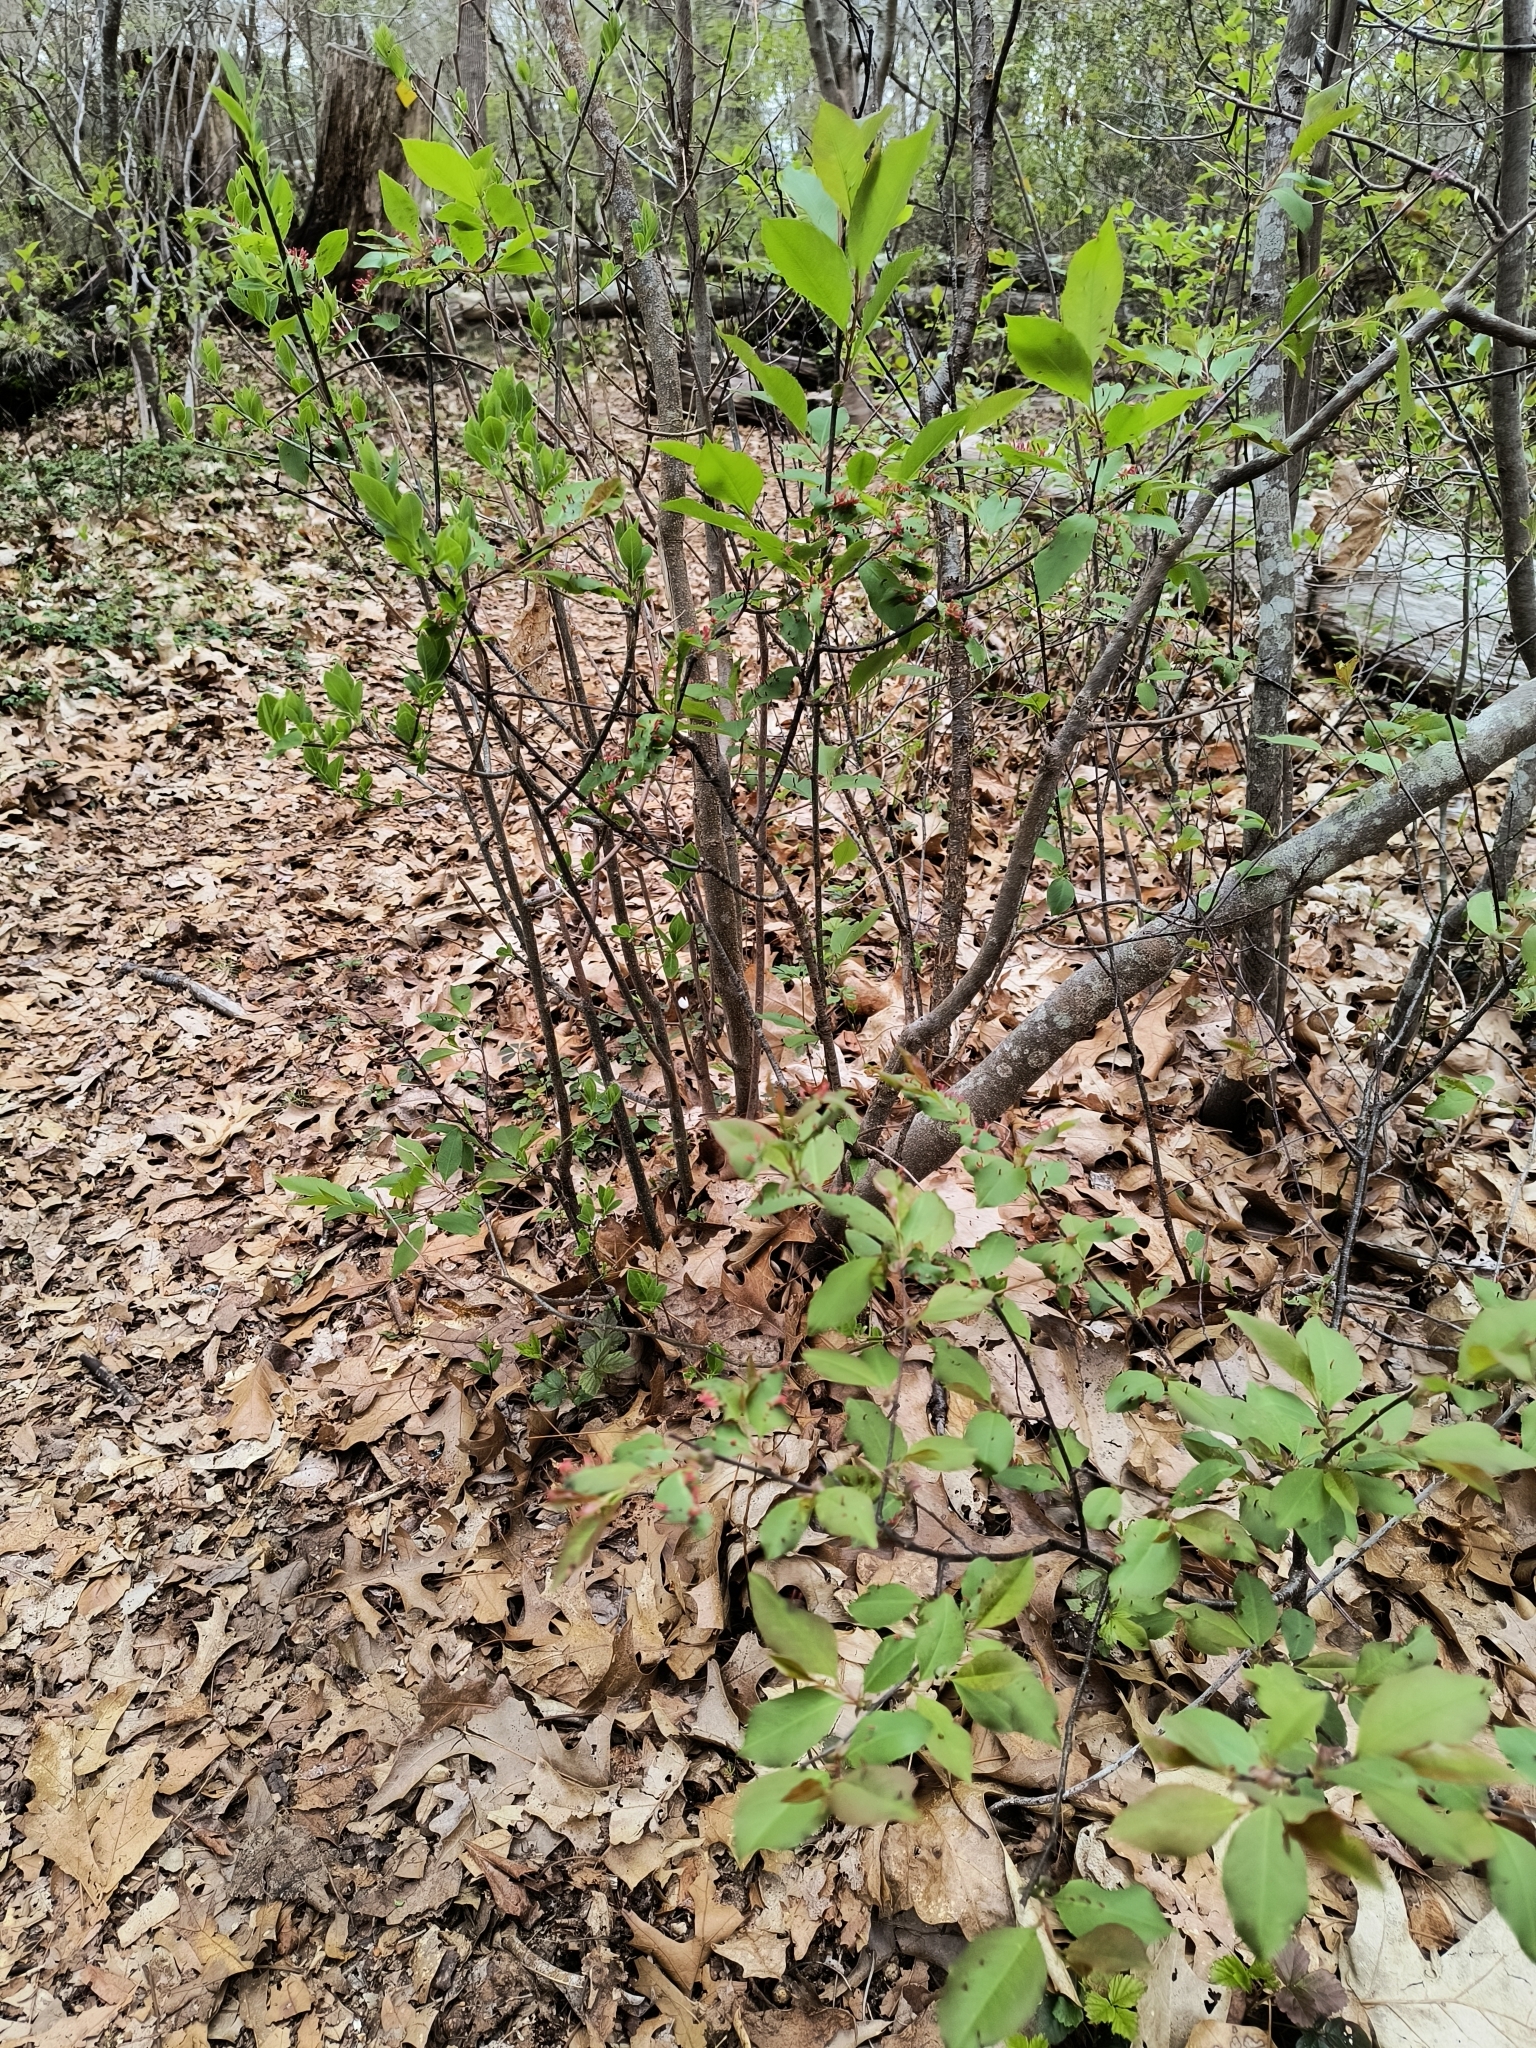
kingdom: Animalia
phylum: Arthropoda
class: Arachnida
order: Trombidiformes
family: Eriophyidae
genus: Eriophyes
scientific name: Eriophyes
